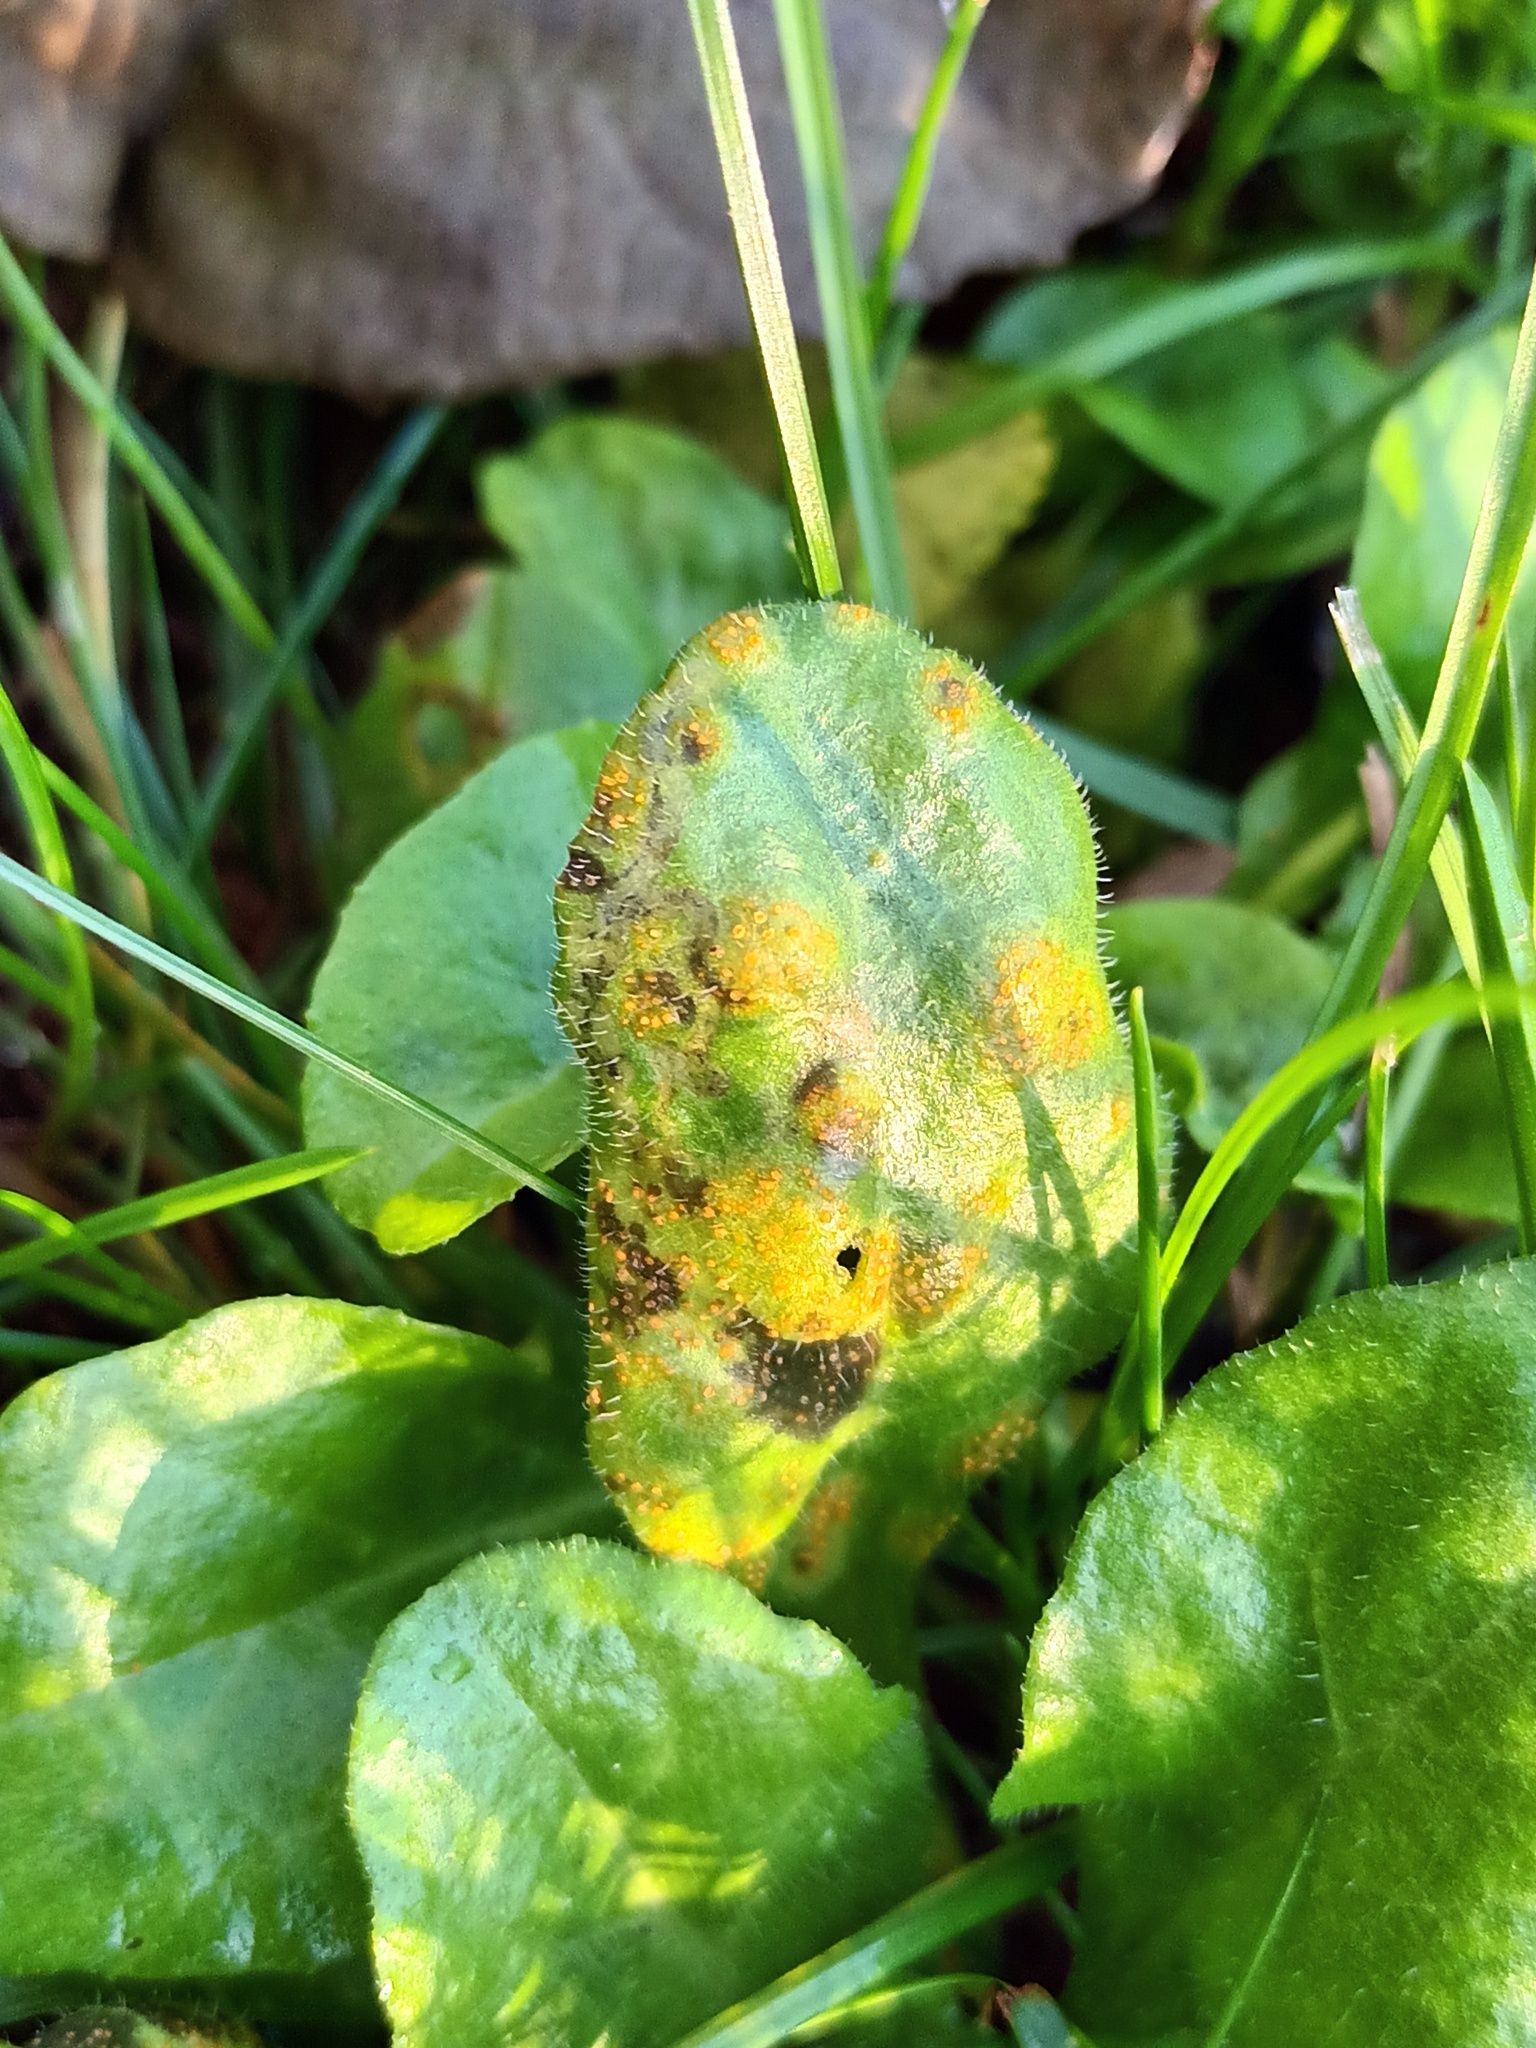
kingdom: Fungi
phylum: Basidiomycota
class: Pucciniomycetes
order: Pucciniales
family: Pucciniaceae
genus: Puccinia
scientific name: Puccinia lagenophorae
